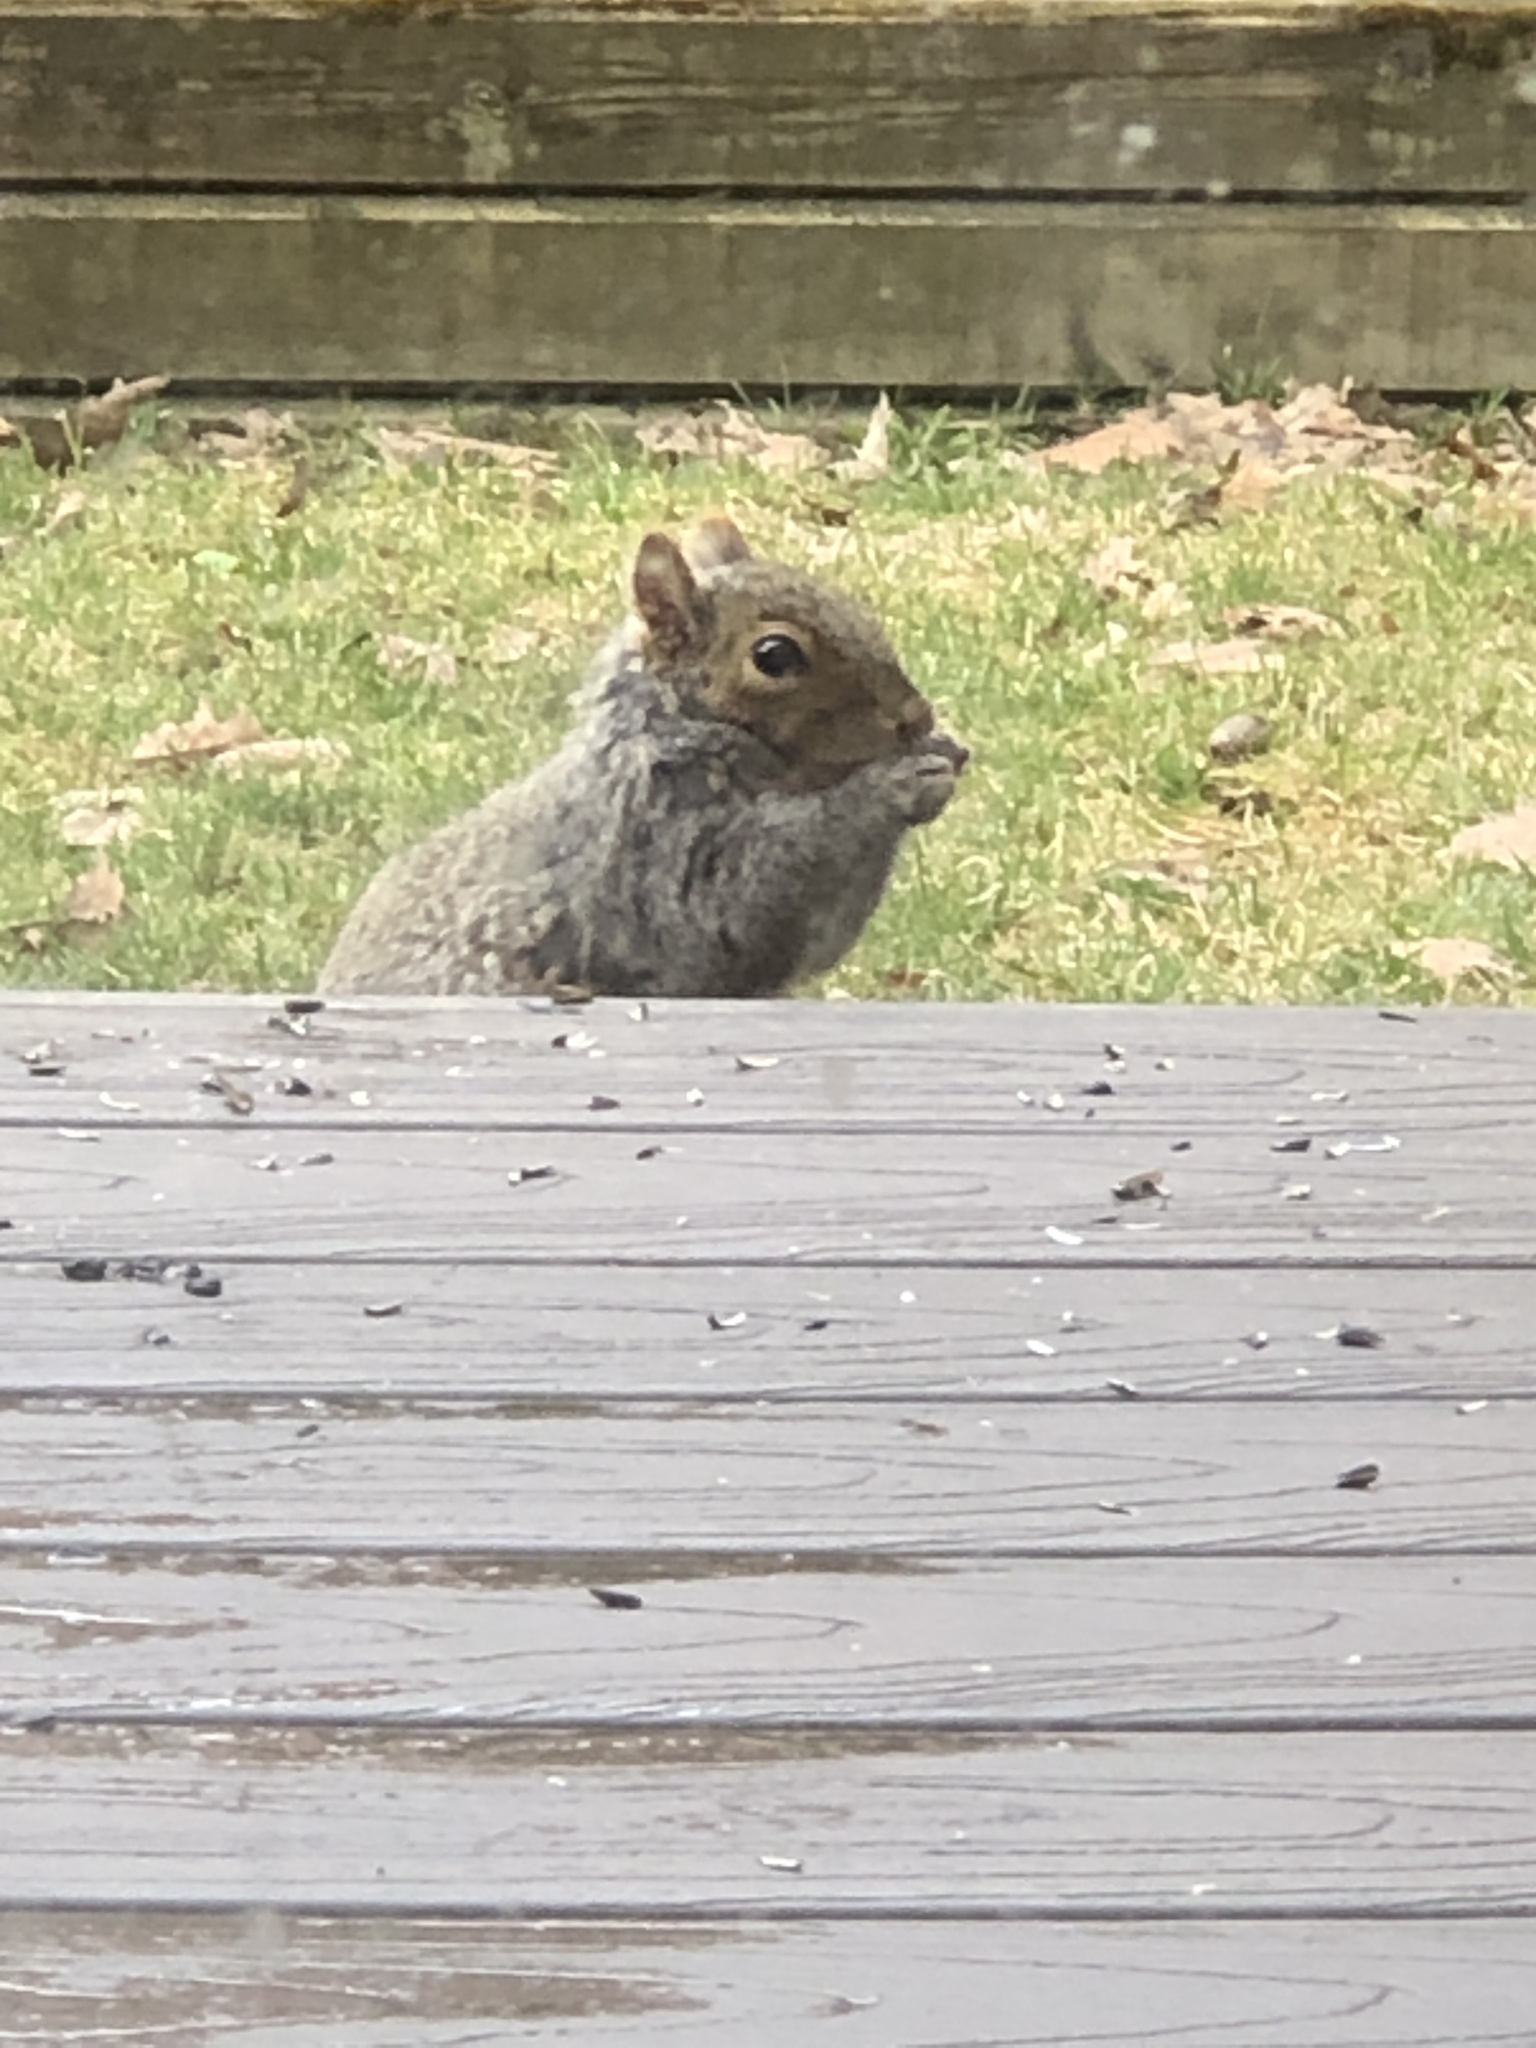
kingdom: Animalia
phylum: Chordata
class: Mammalia
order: Rodentia
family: Sciuridae
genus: Sciurus
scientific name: Sciurus carolinensis
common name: Eastern gray squirrel
